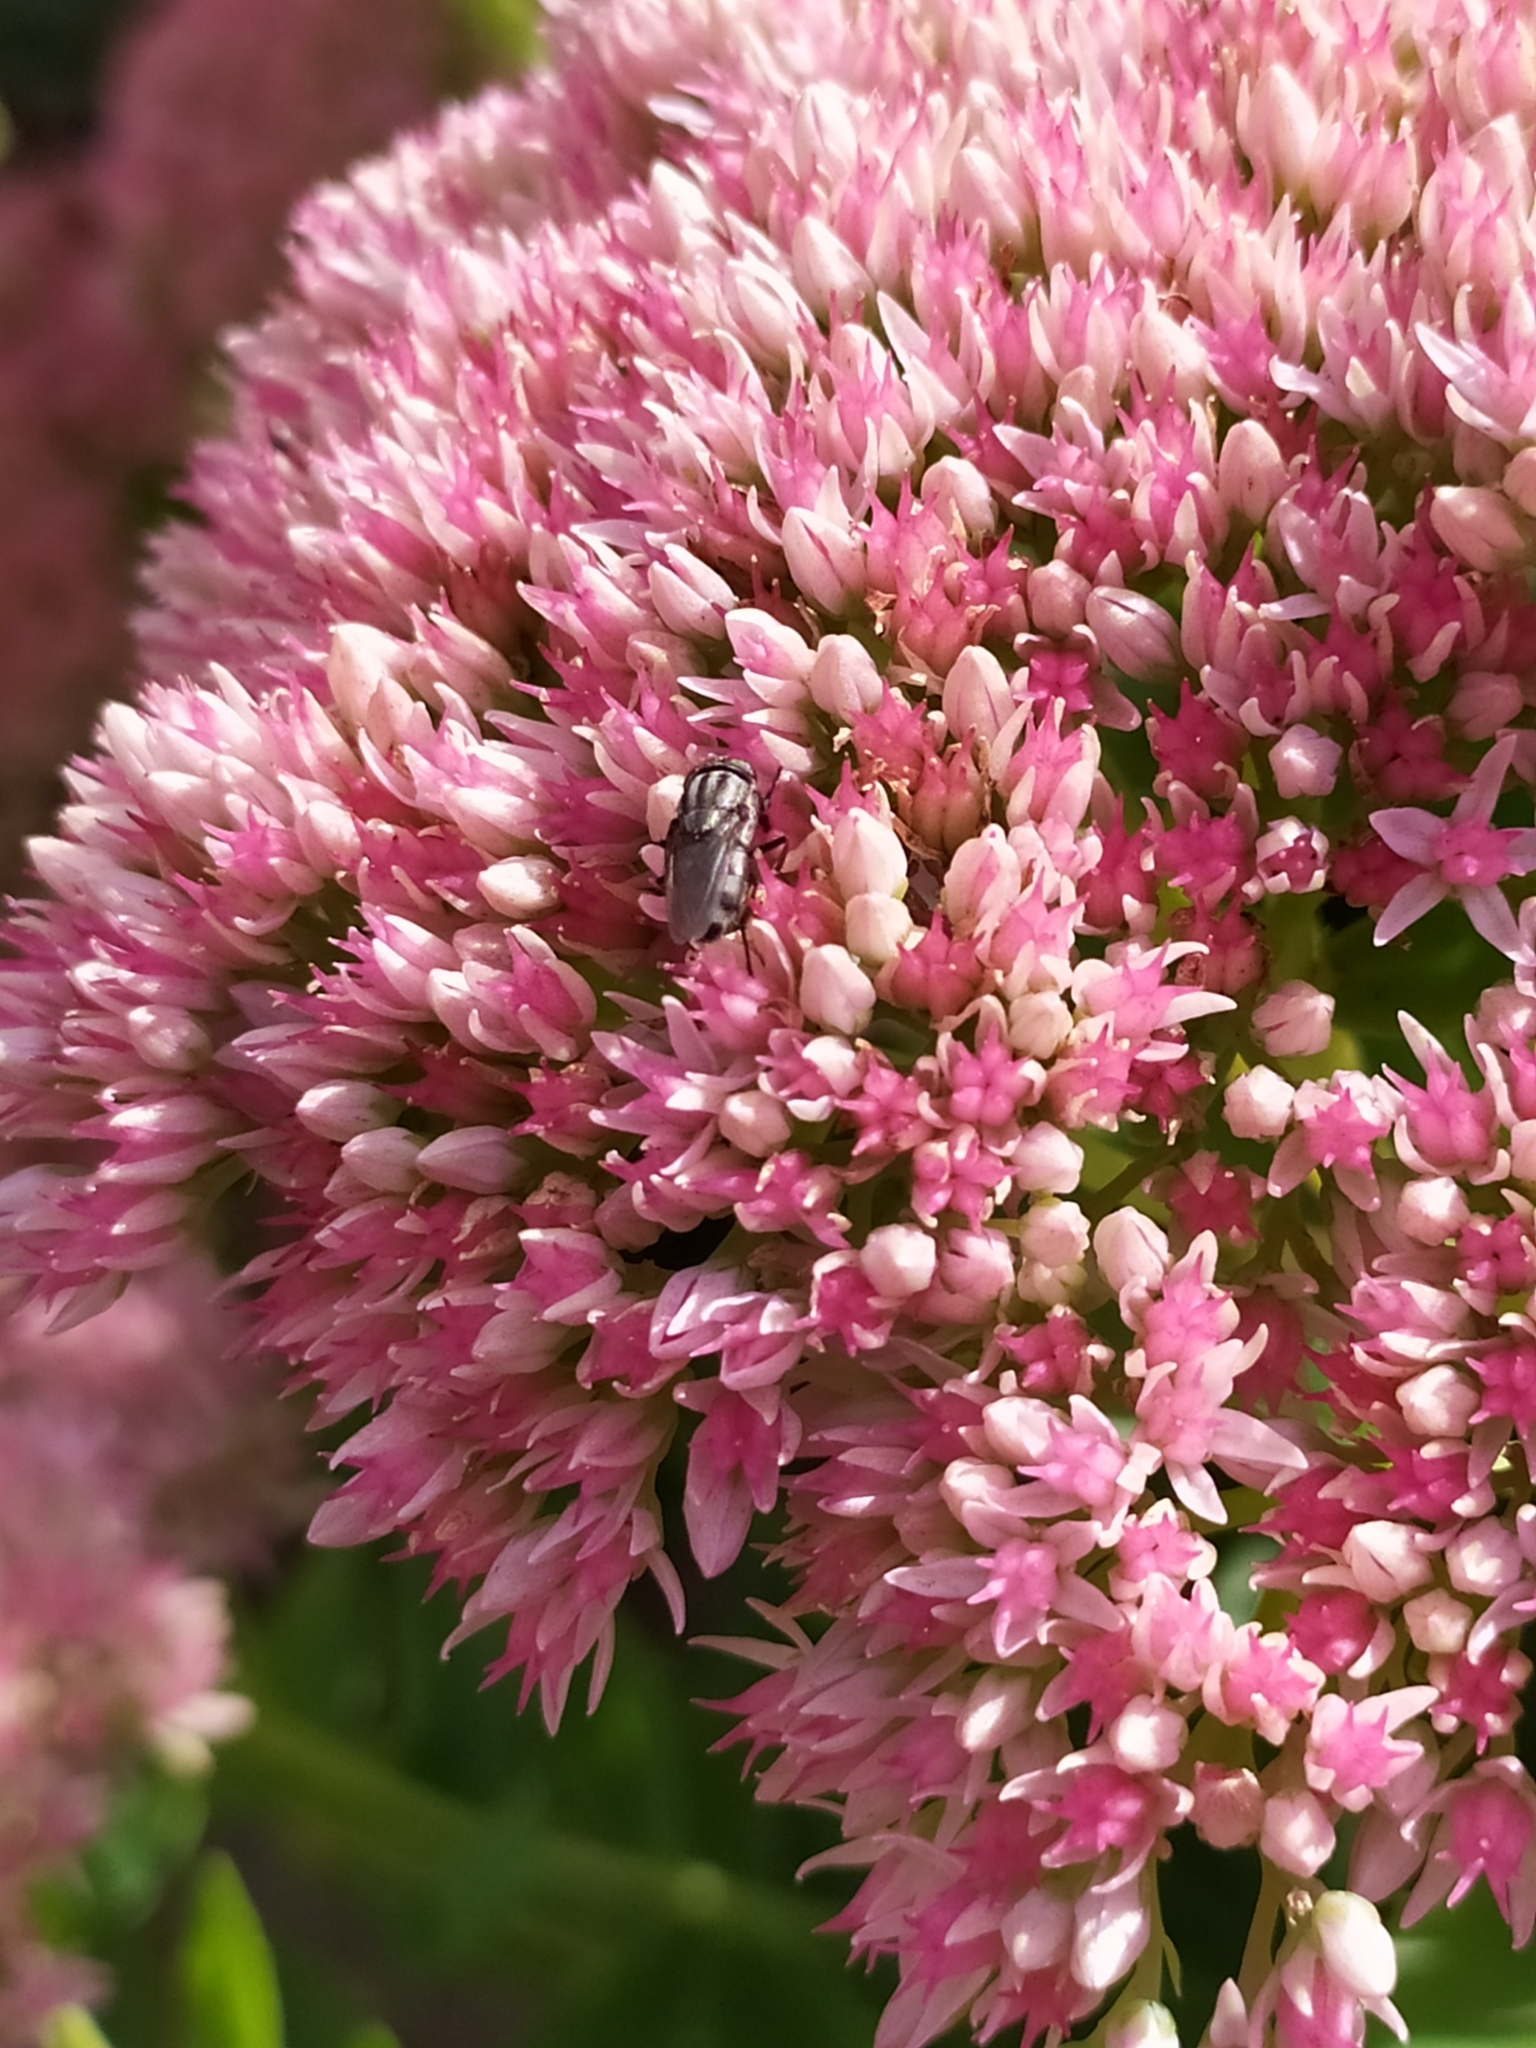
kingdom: Animalia
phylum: Arthropoda
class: Insecta
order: Diptera
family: Calliphoridae
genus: Stomorhina
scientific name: Stomorhina lunata
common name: Locust blowfly
